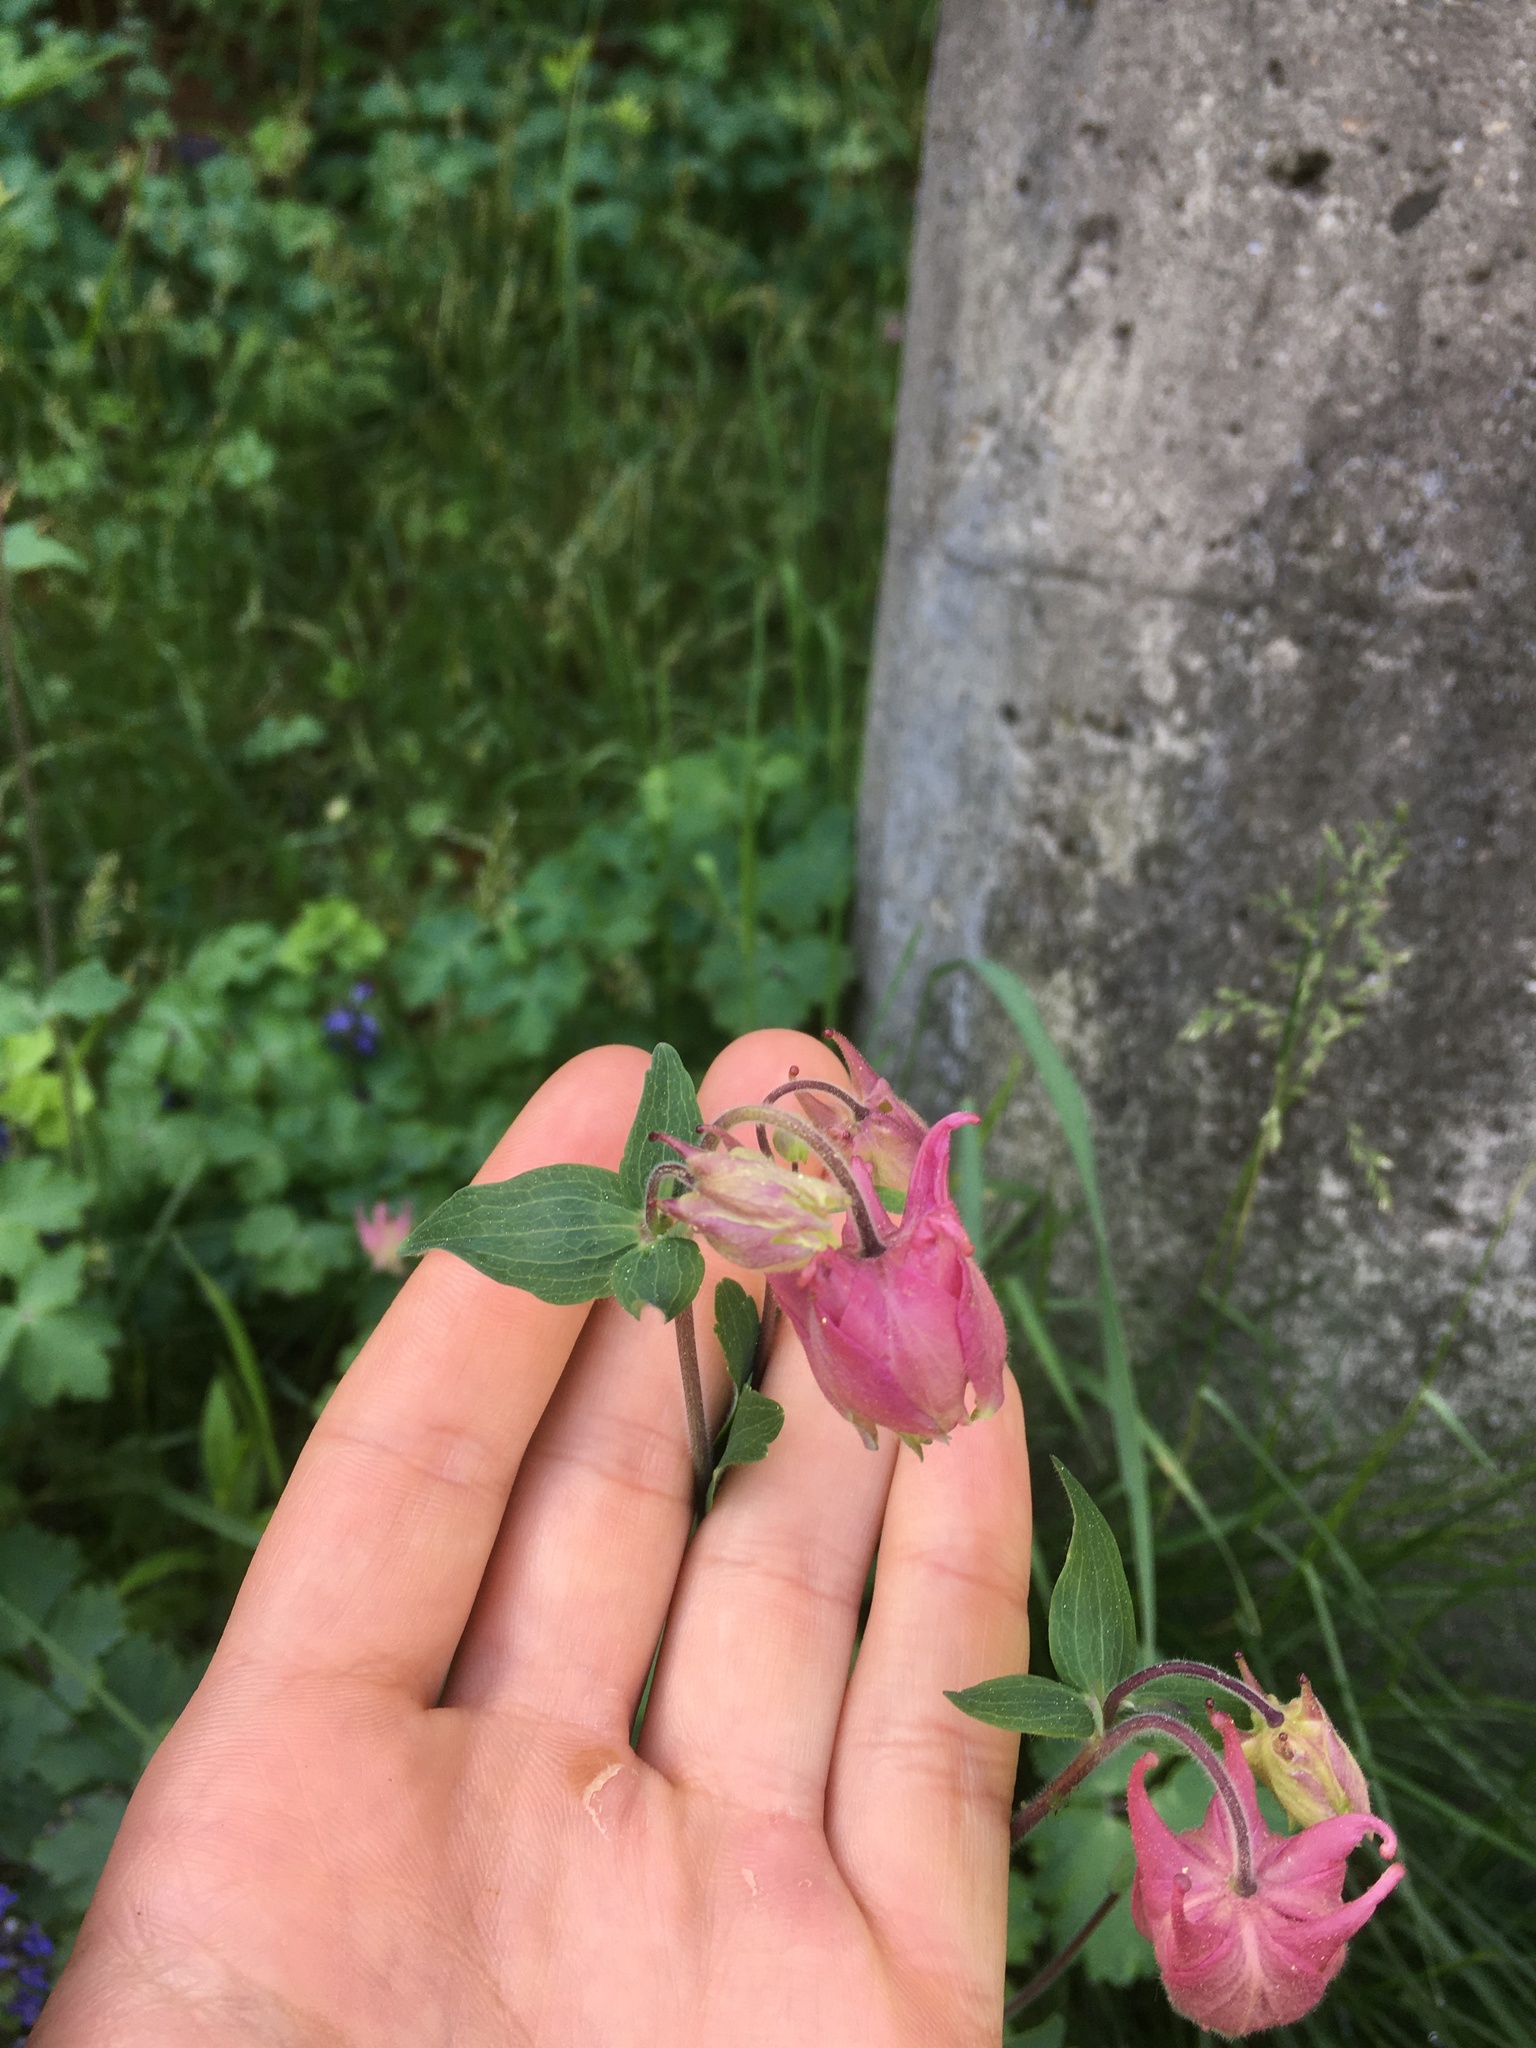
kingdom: Plantae
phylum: Tracheophyta
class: Magnoliopsida
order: Ranunculales
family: Ranunculaceae
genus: Aquilegia
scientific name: Aquilegia canadensis
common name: American columbine
